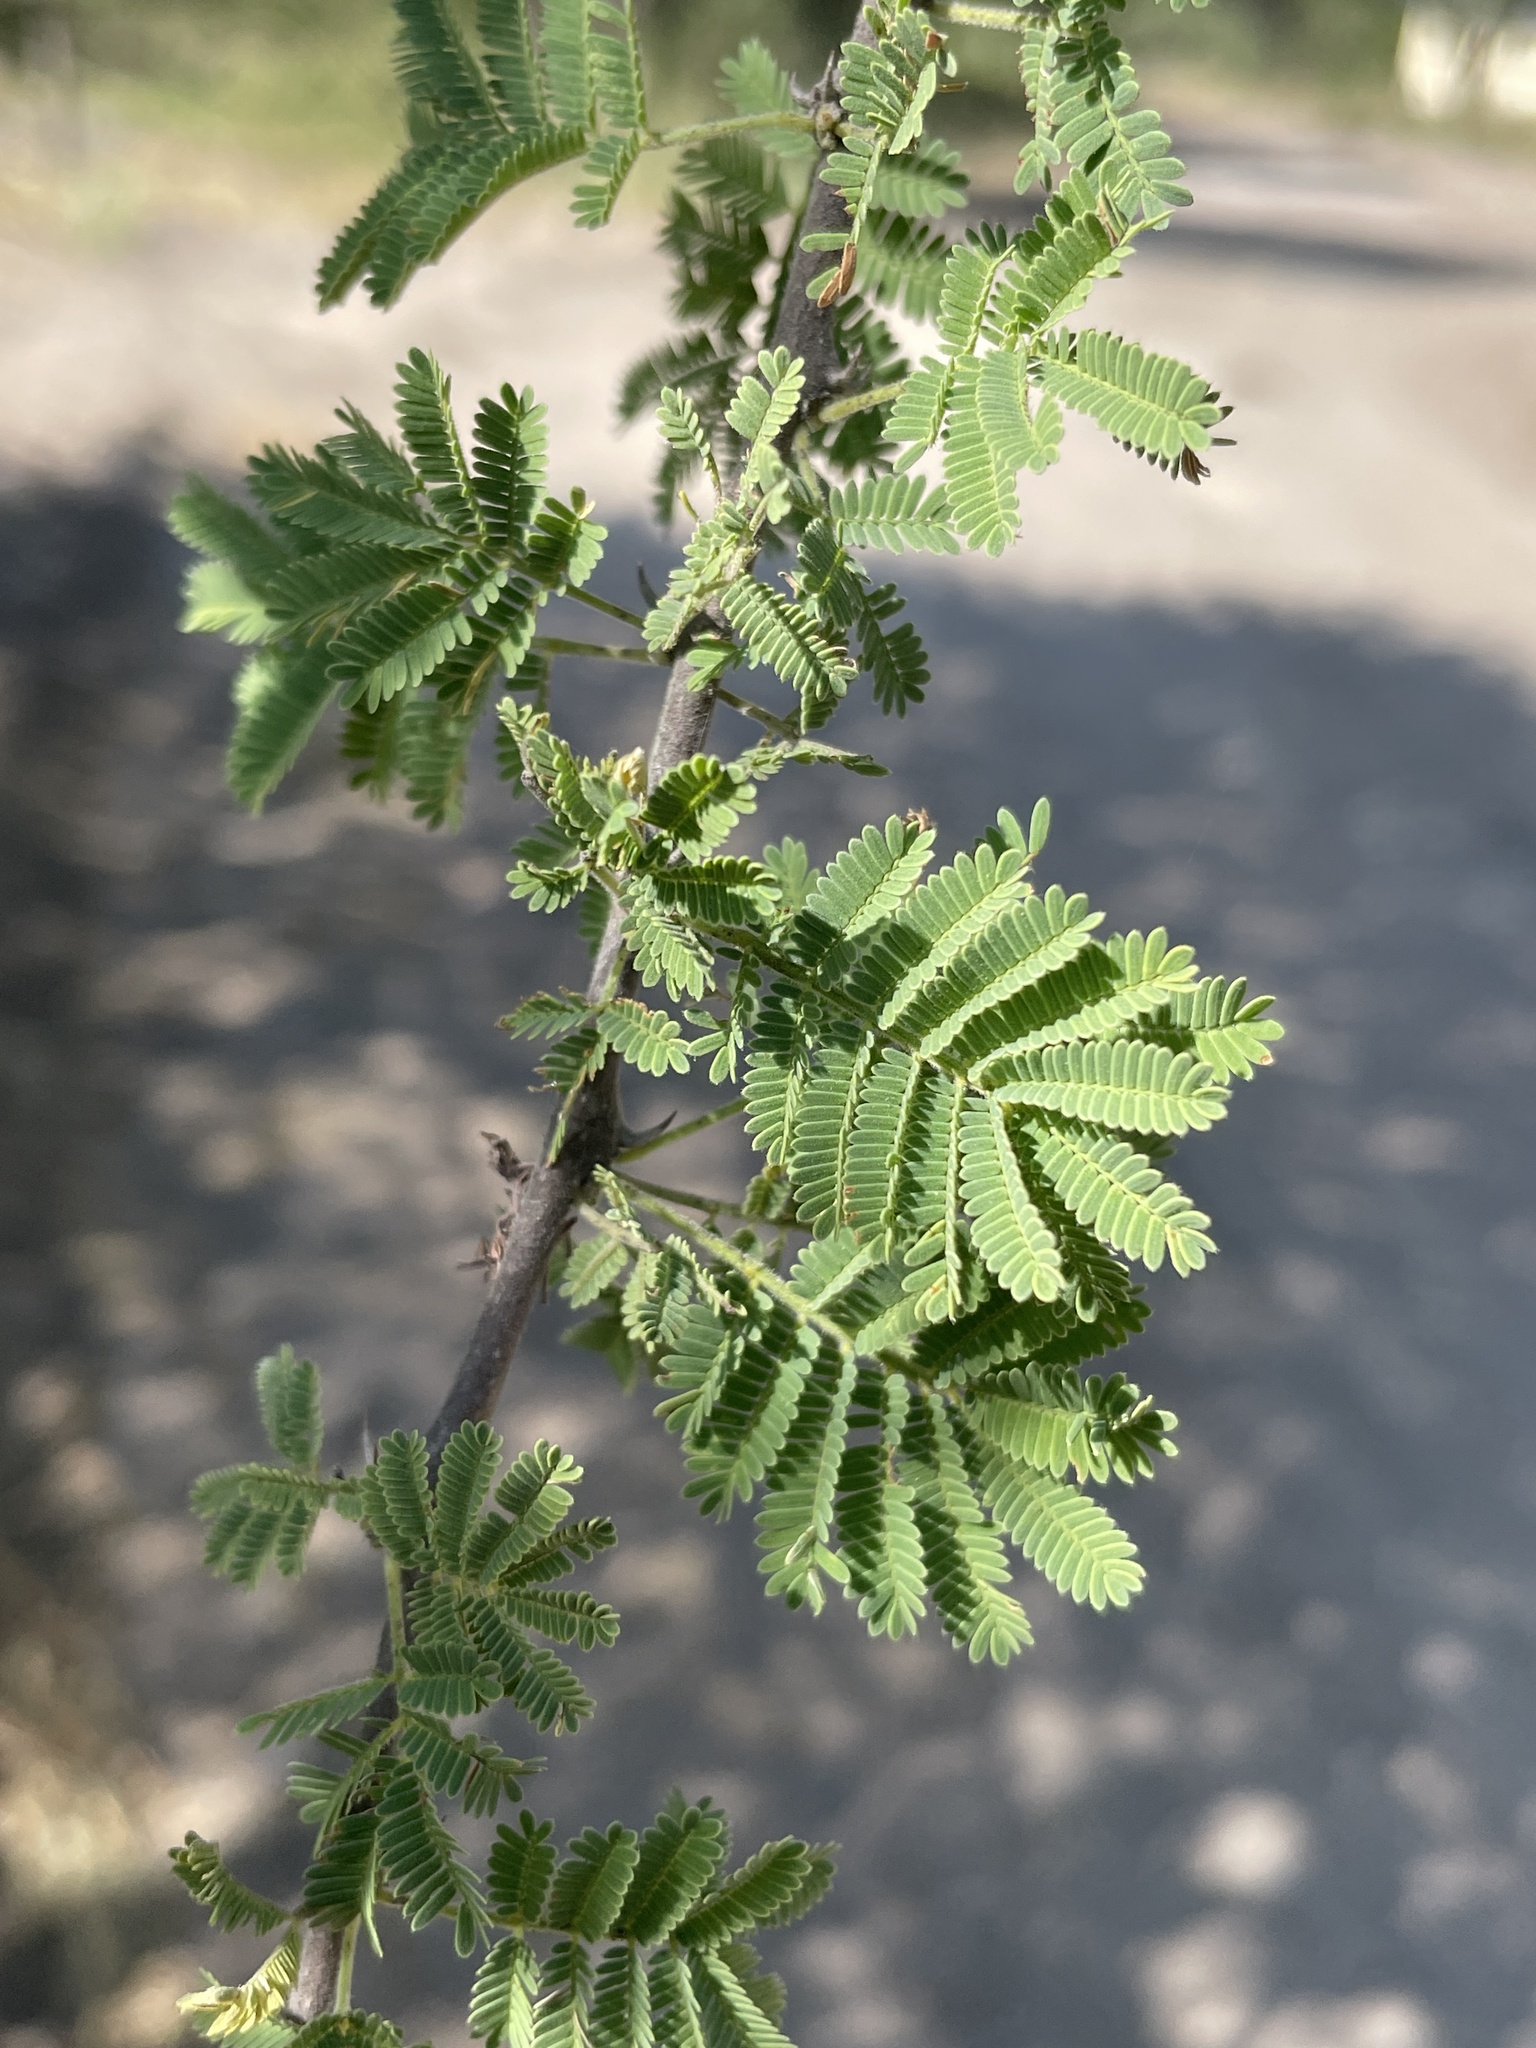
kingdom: Plantae
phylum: Tracheophyta
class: Magnoliopsida
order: Fabales
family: Fabaceae
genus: Vachellia
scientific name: Vachellia tortilis
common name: Umbrella thorn acacia
